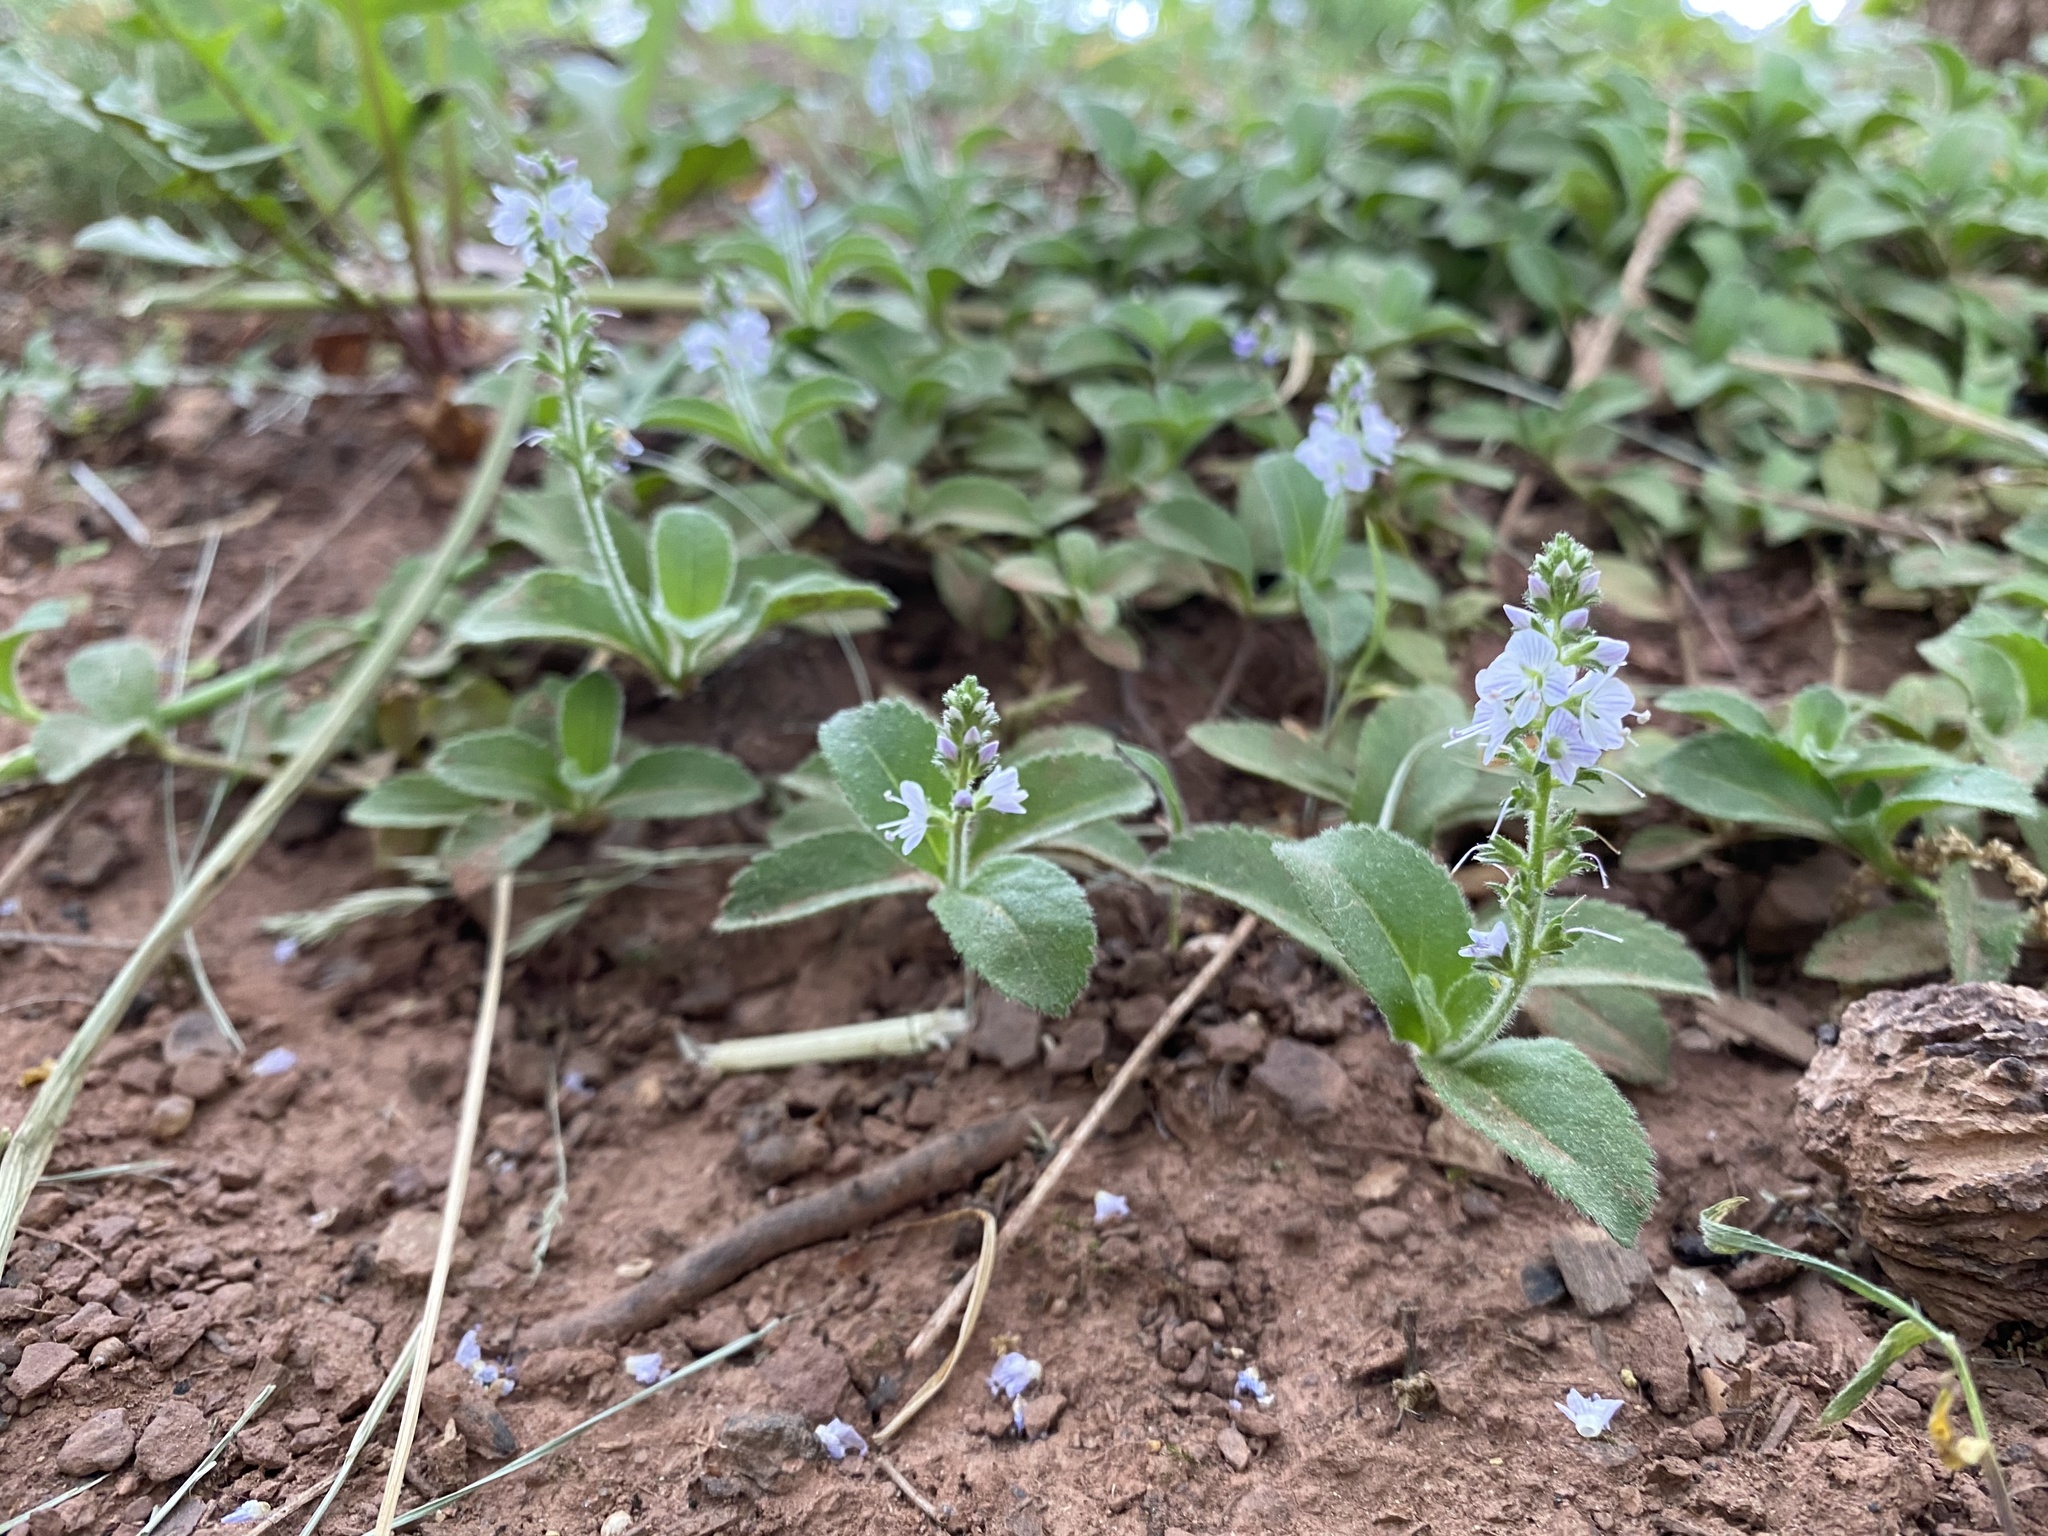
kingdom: Plantae
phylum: Tracheophyta
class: Magnoliopsida
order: Lamiales
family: Plantaginaceae
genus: Veronica
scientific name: Veronica officinalis
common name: Common speedwell
